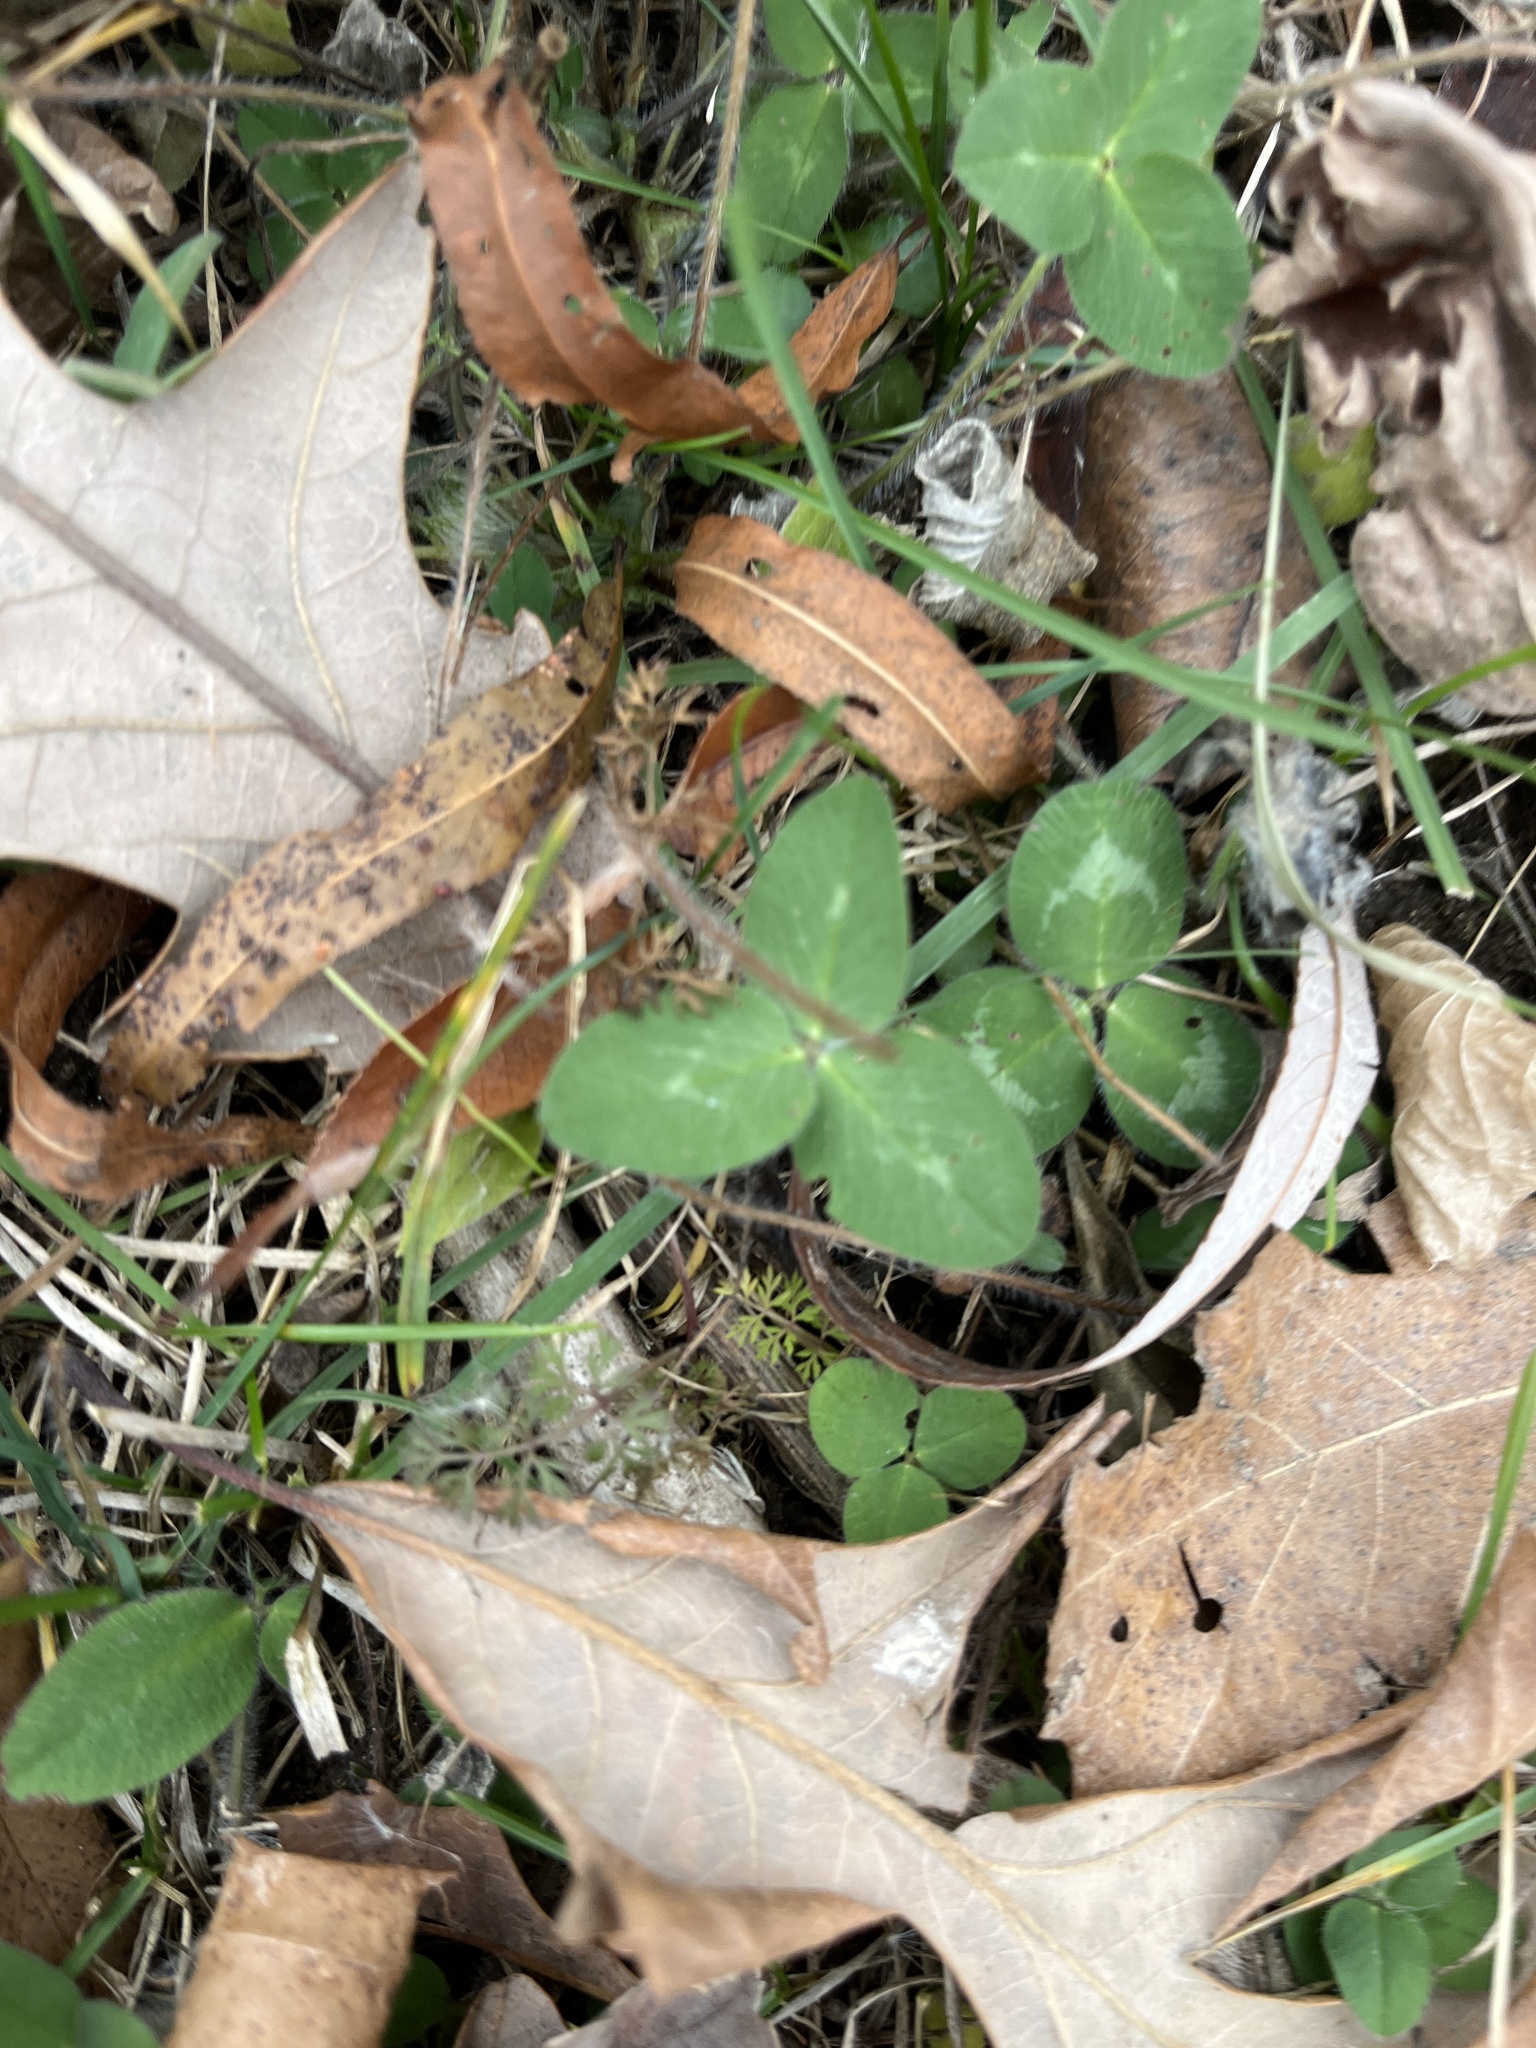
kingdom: Plantae
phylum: Tracheophyta
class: Magnoliopsida
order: Fabales
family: Fabaceae
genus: Trifolium
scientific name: Trifolium repens
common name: White clover
